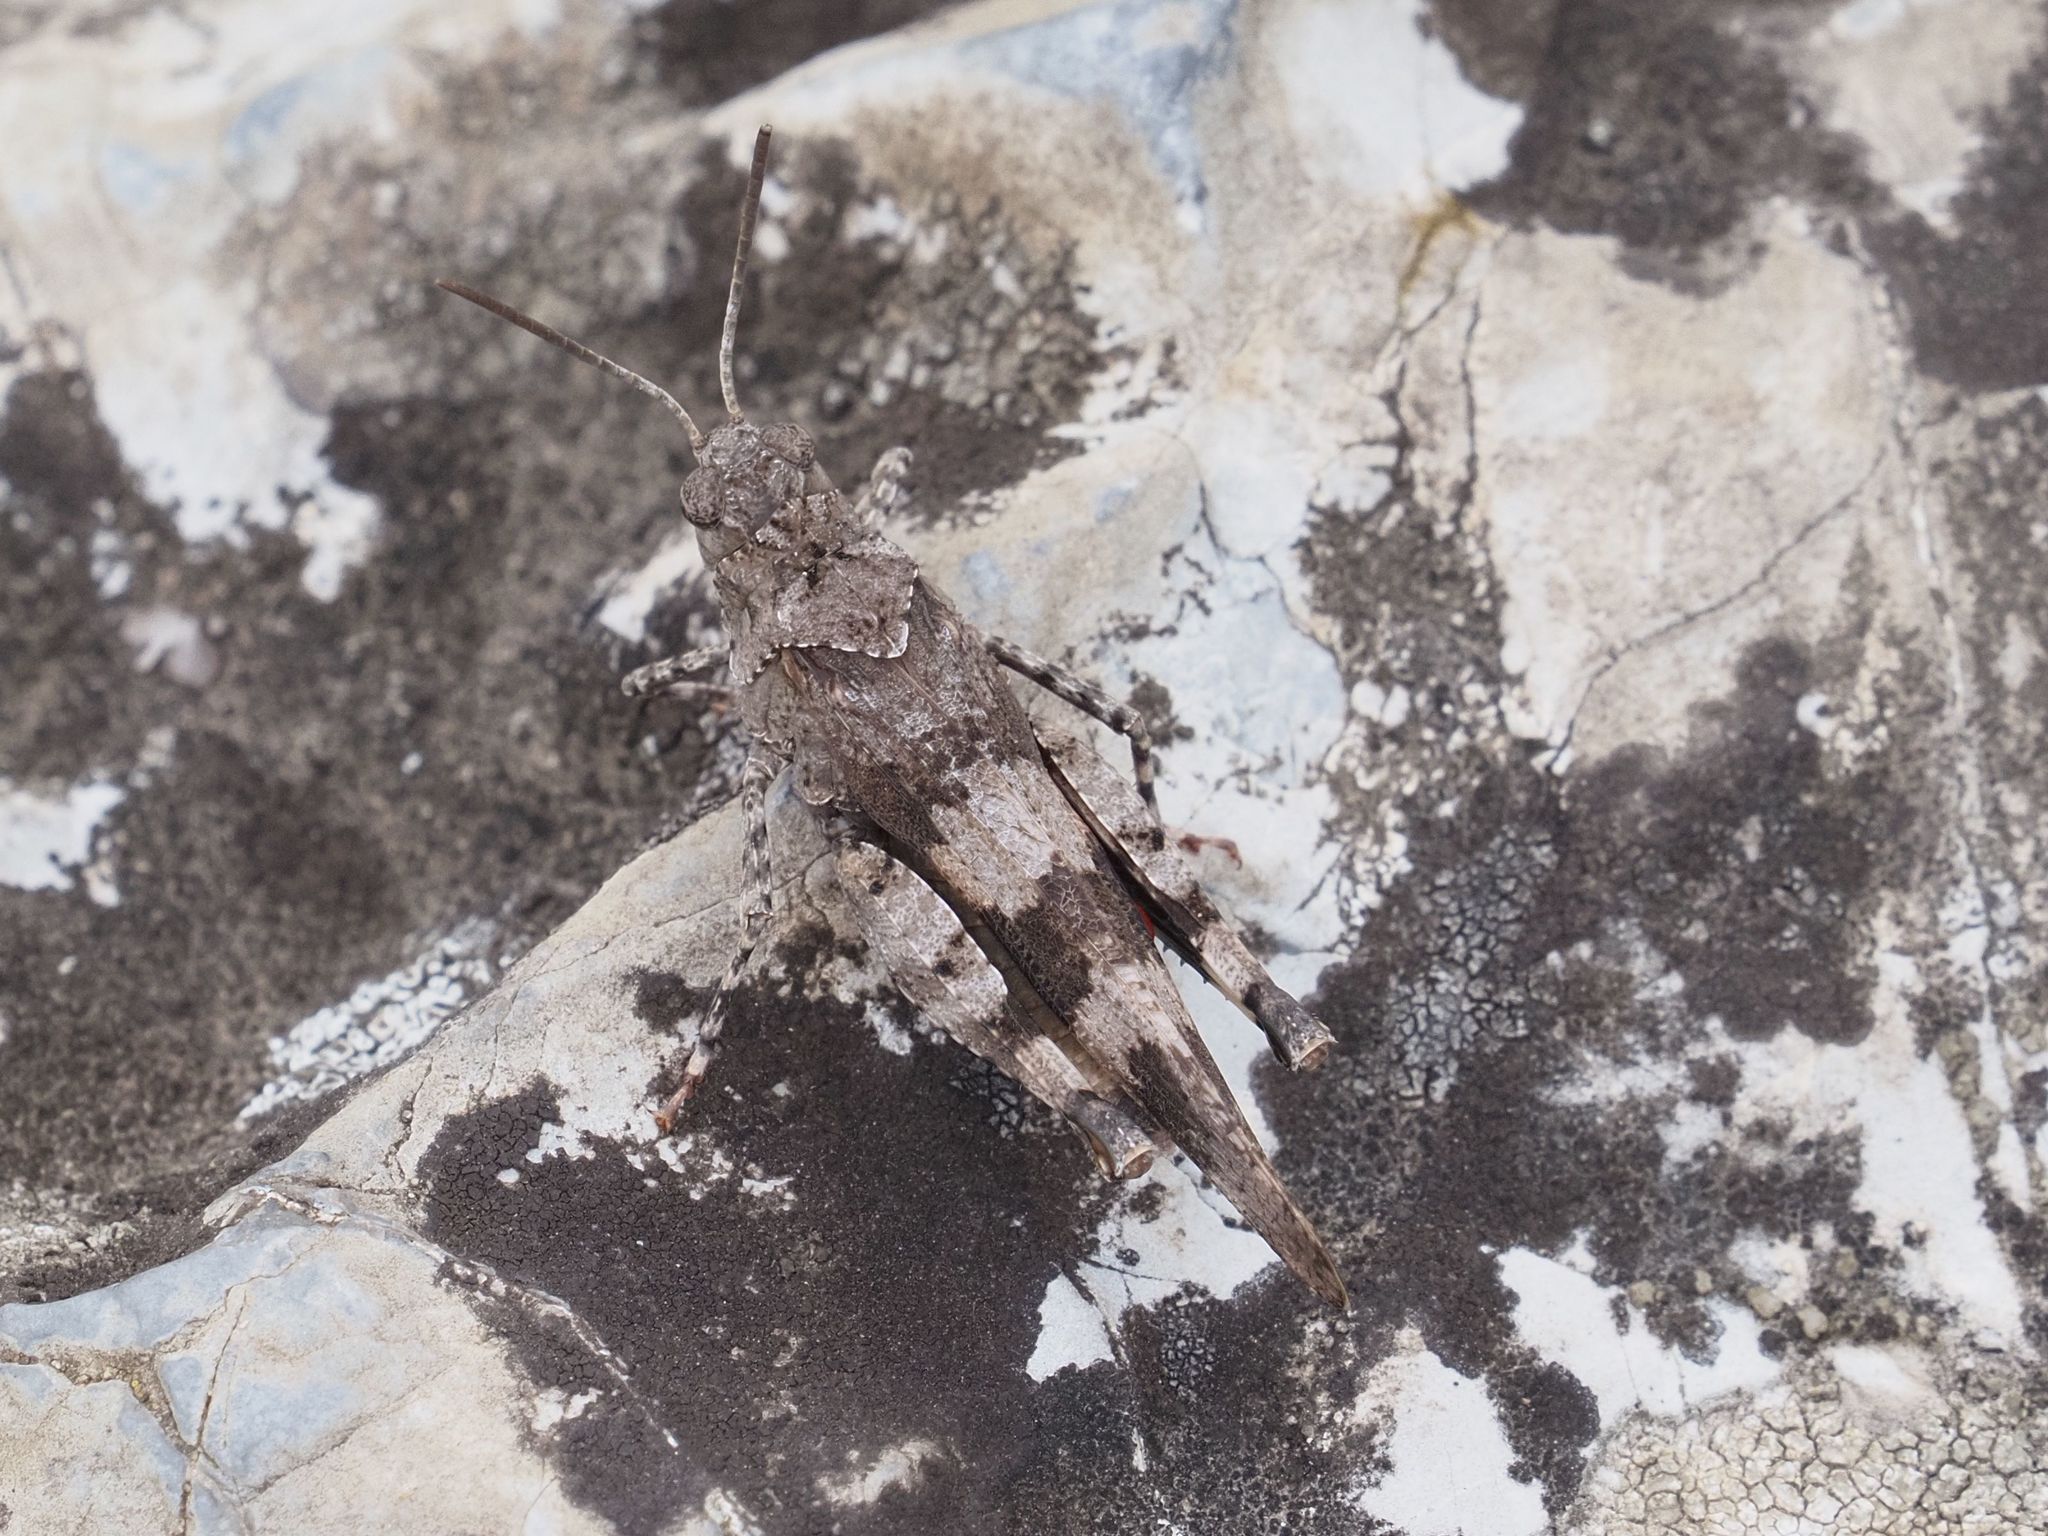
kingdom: Animalia
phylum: Arthropoda
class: Insecta
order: Orthoptera
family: Acrididae
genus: Oedipoda
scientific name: Oedipoda caerulescens
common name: Blue-winged grasshopper
